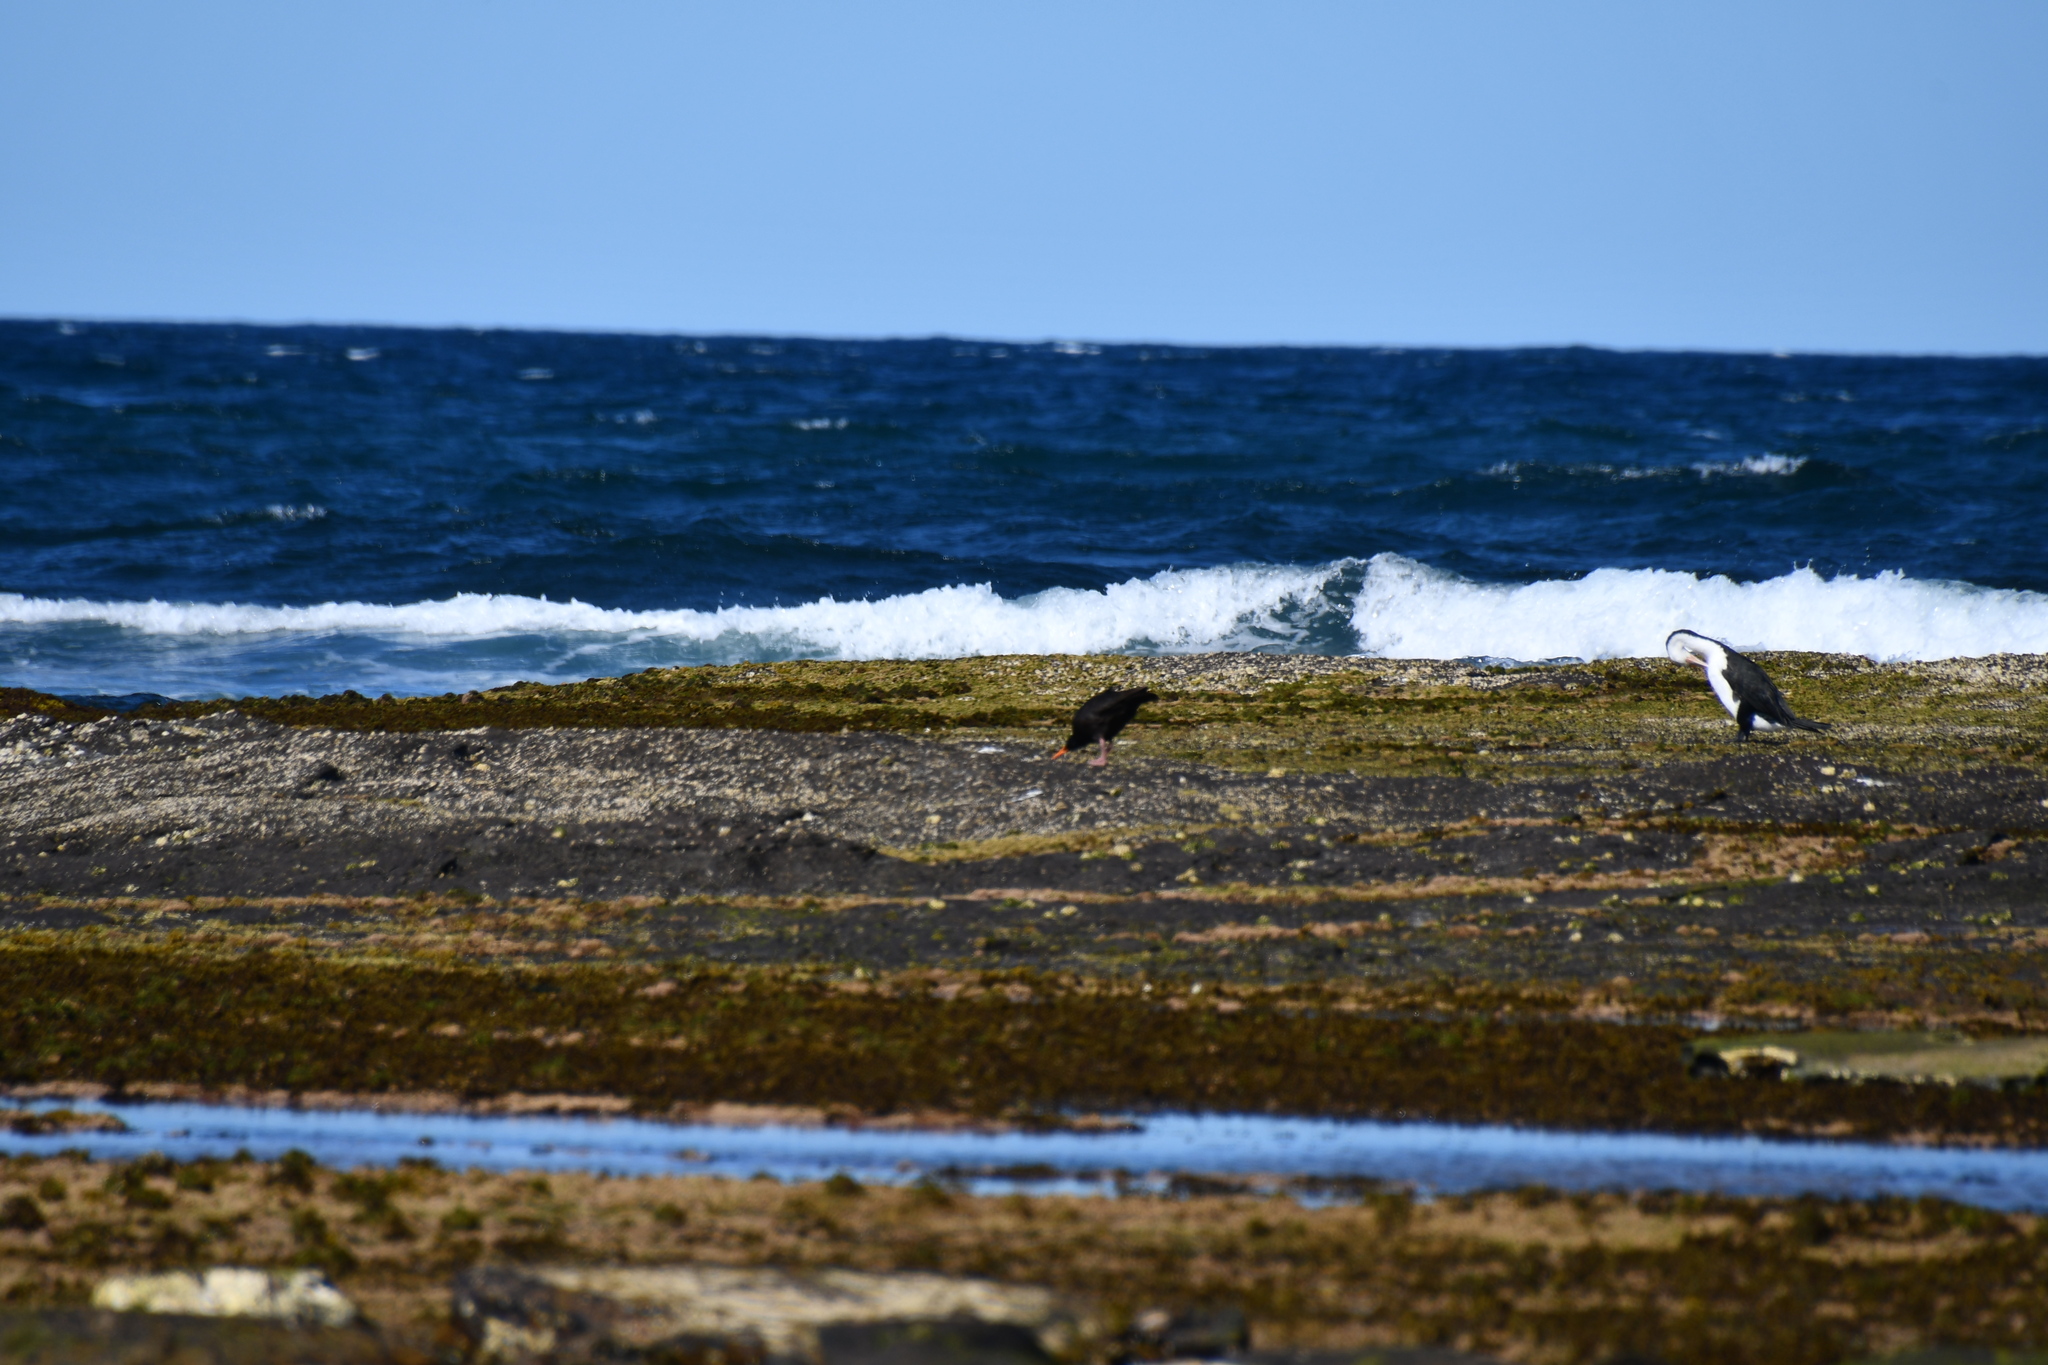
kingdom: Animalia
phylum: Chordata
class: Aves
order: Charadriiformes
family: Haematopodidae
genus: Haematopus
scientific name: Haematopus fuliginosus
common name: Sooty oystercatcher
